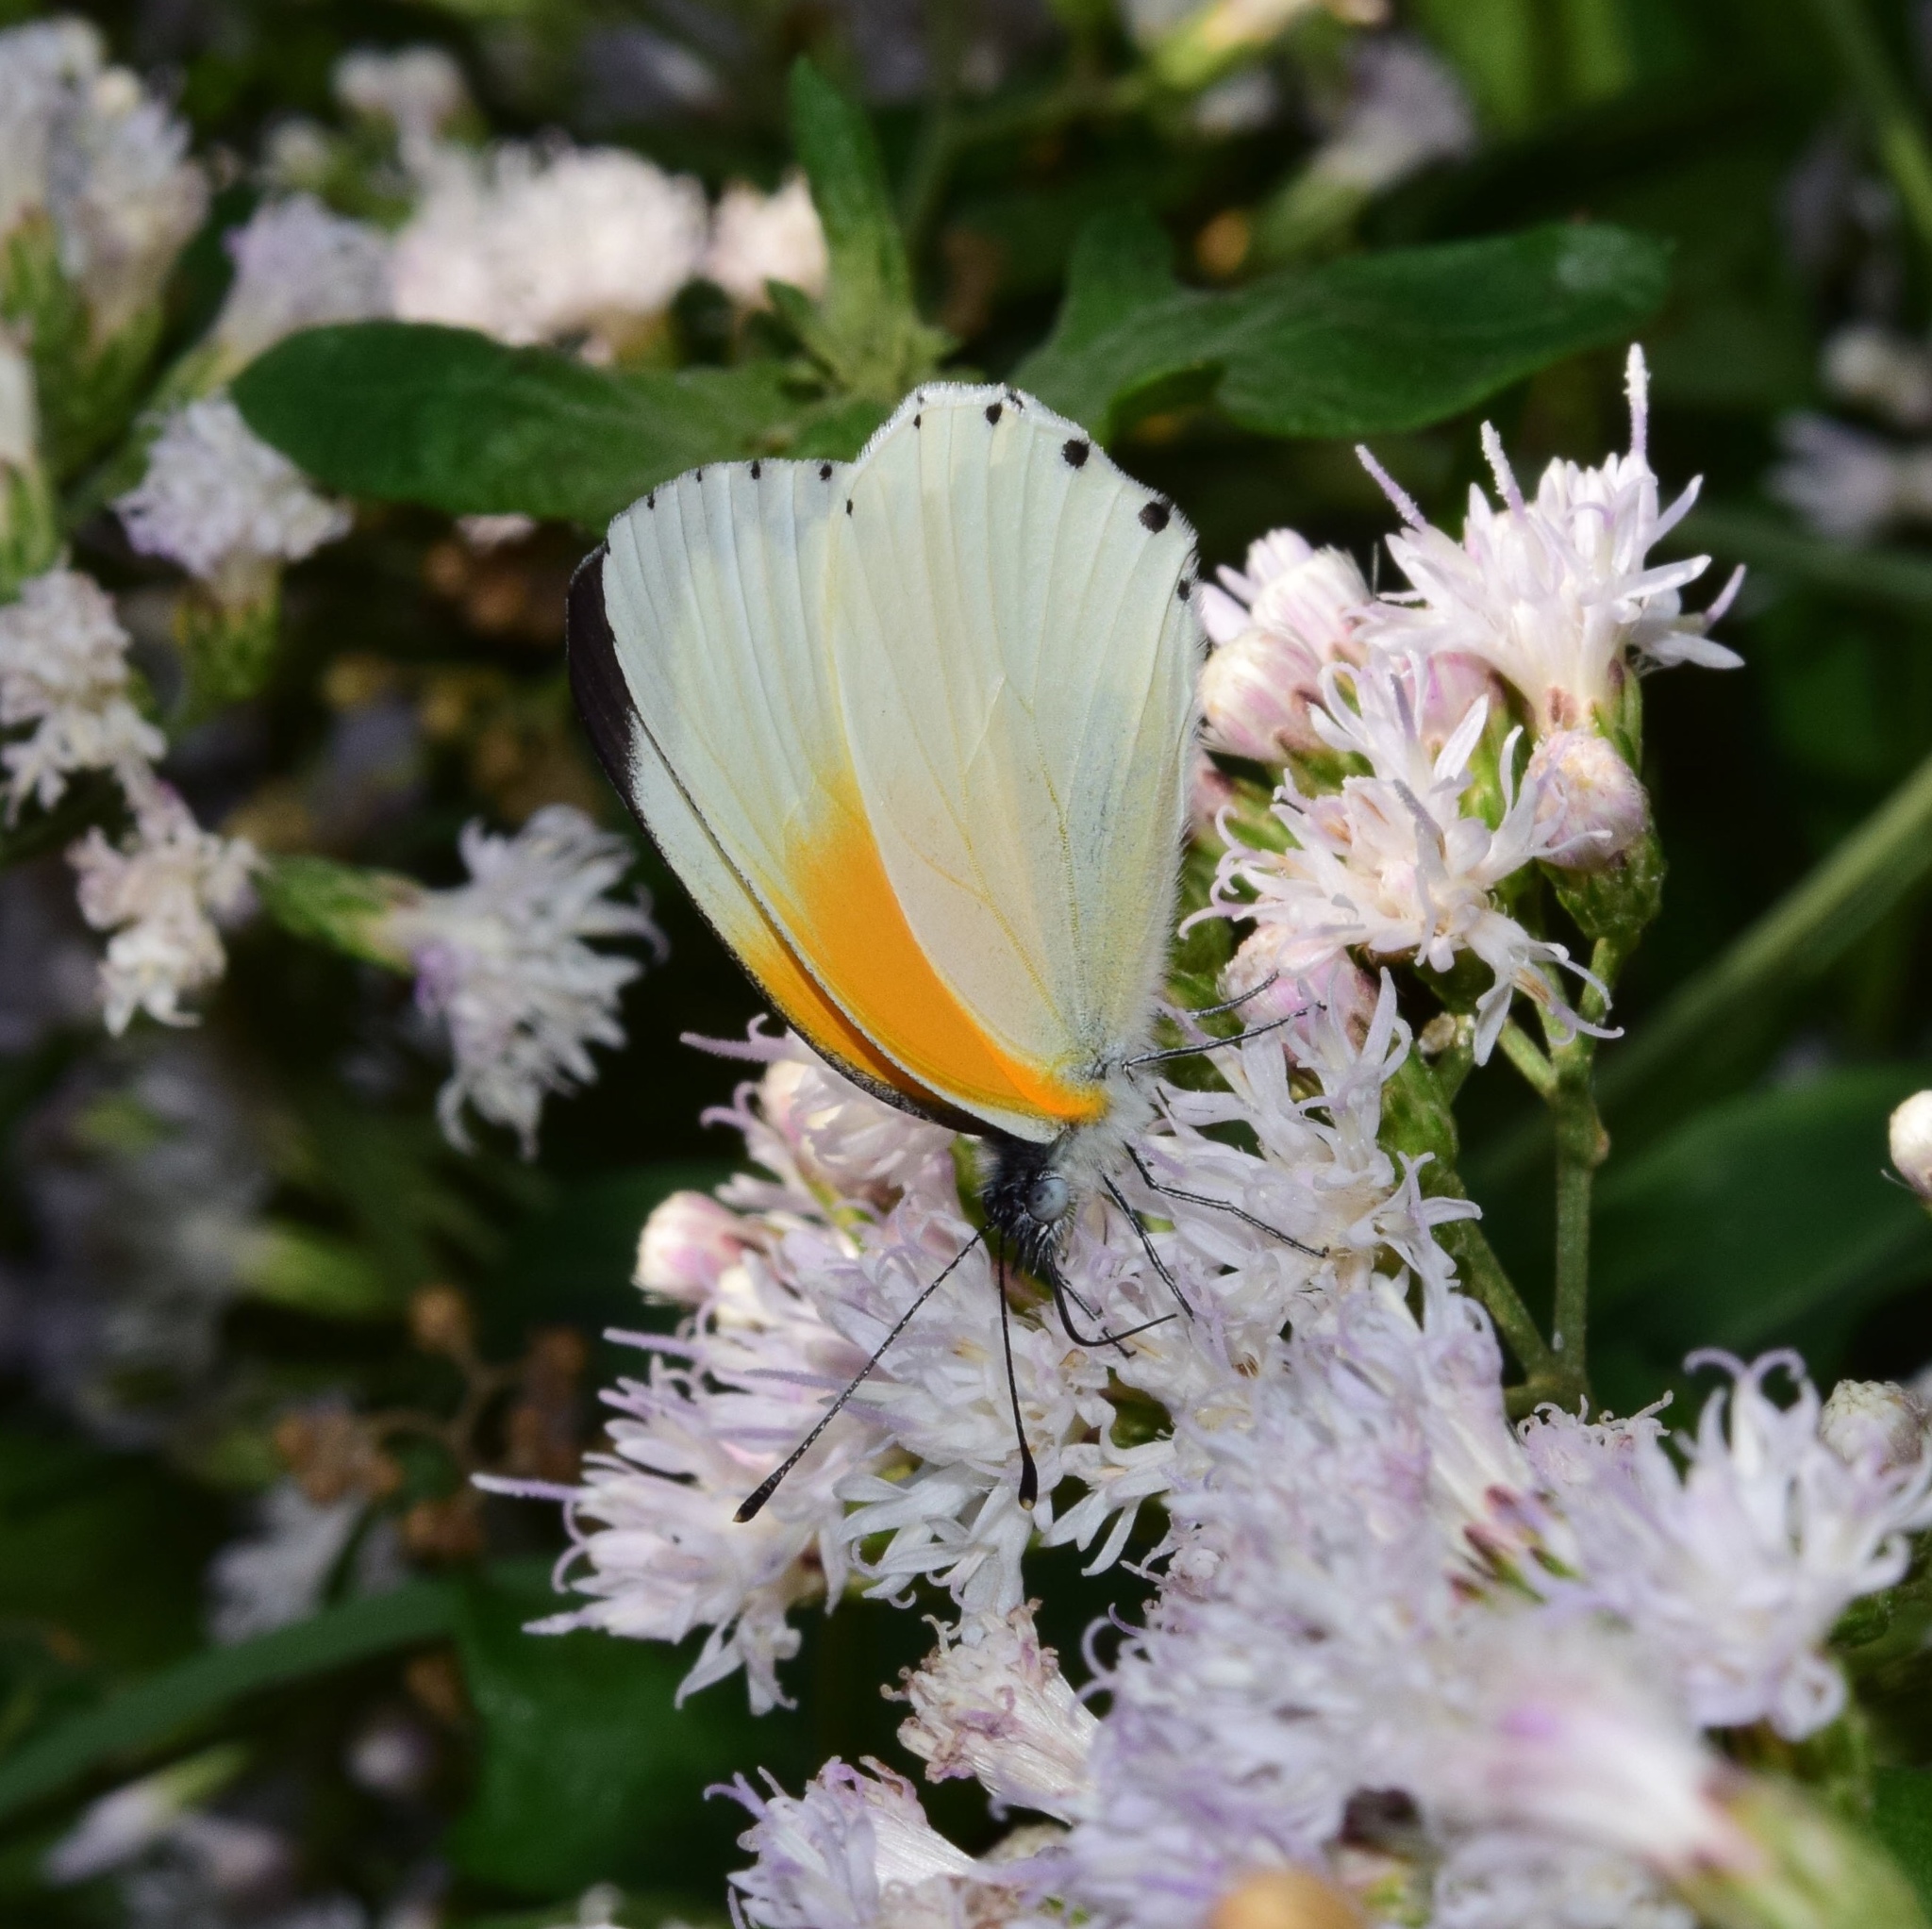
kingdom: Animalia
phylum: Arthropoda
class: Insecta
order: Lepidoptera
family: Pieridae
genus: Mylothris
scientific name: Mylothris rueppellii
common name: Twin dotted border
